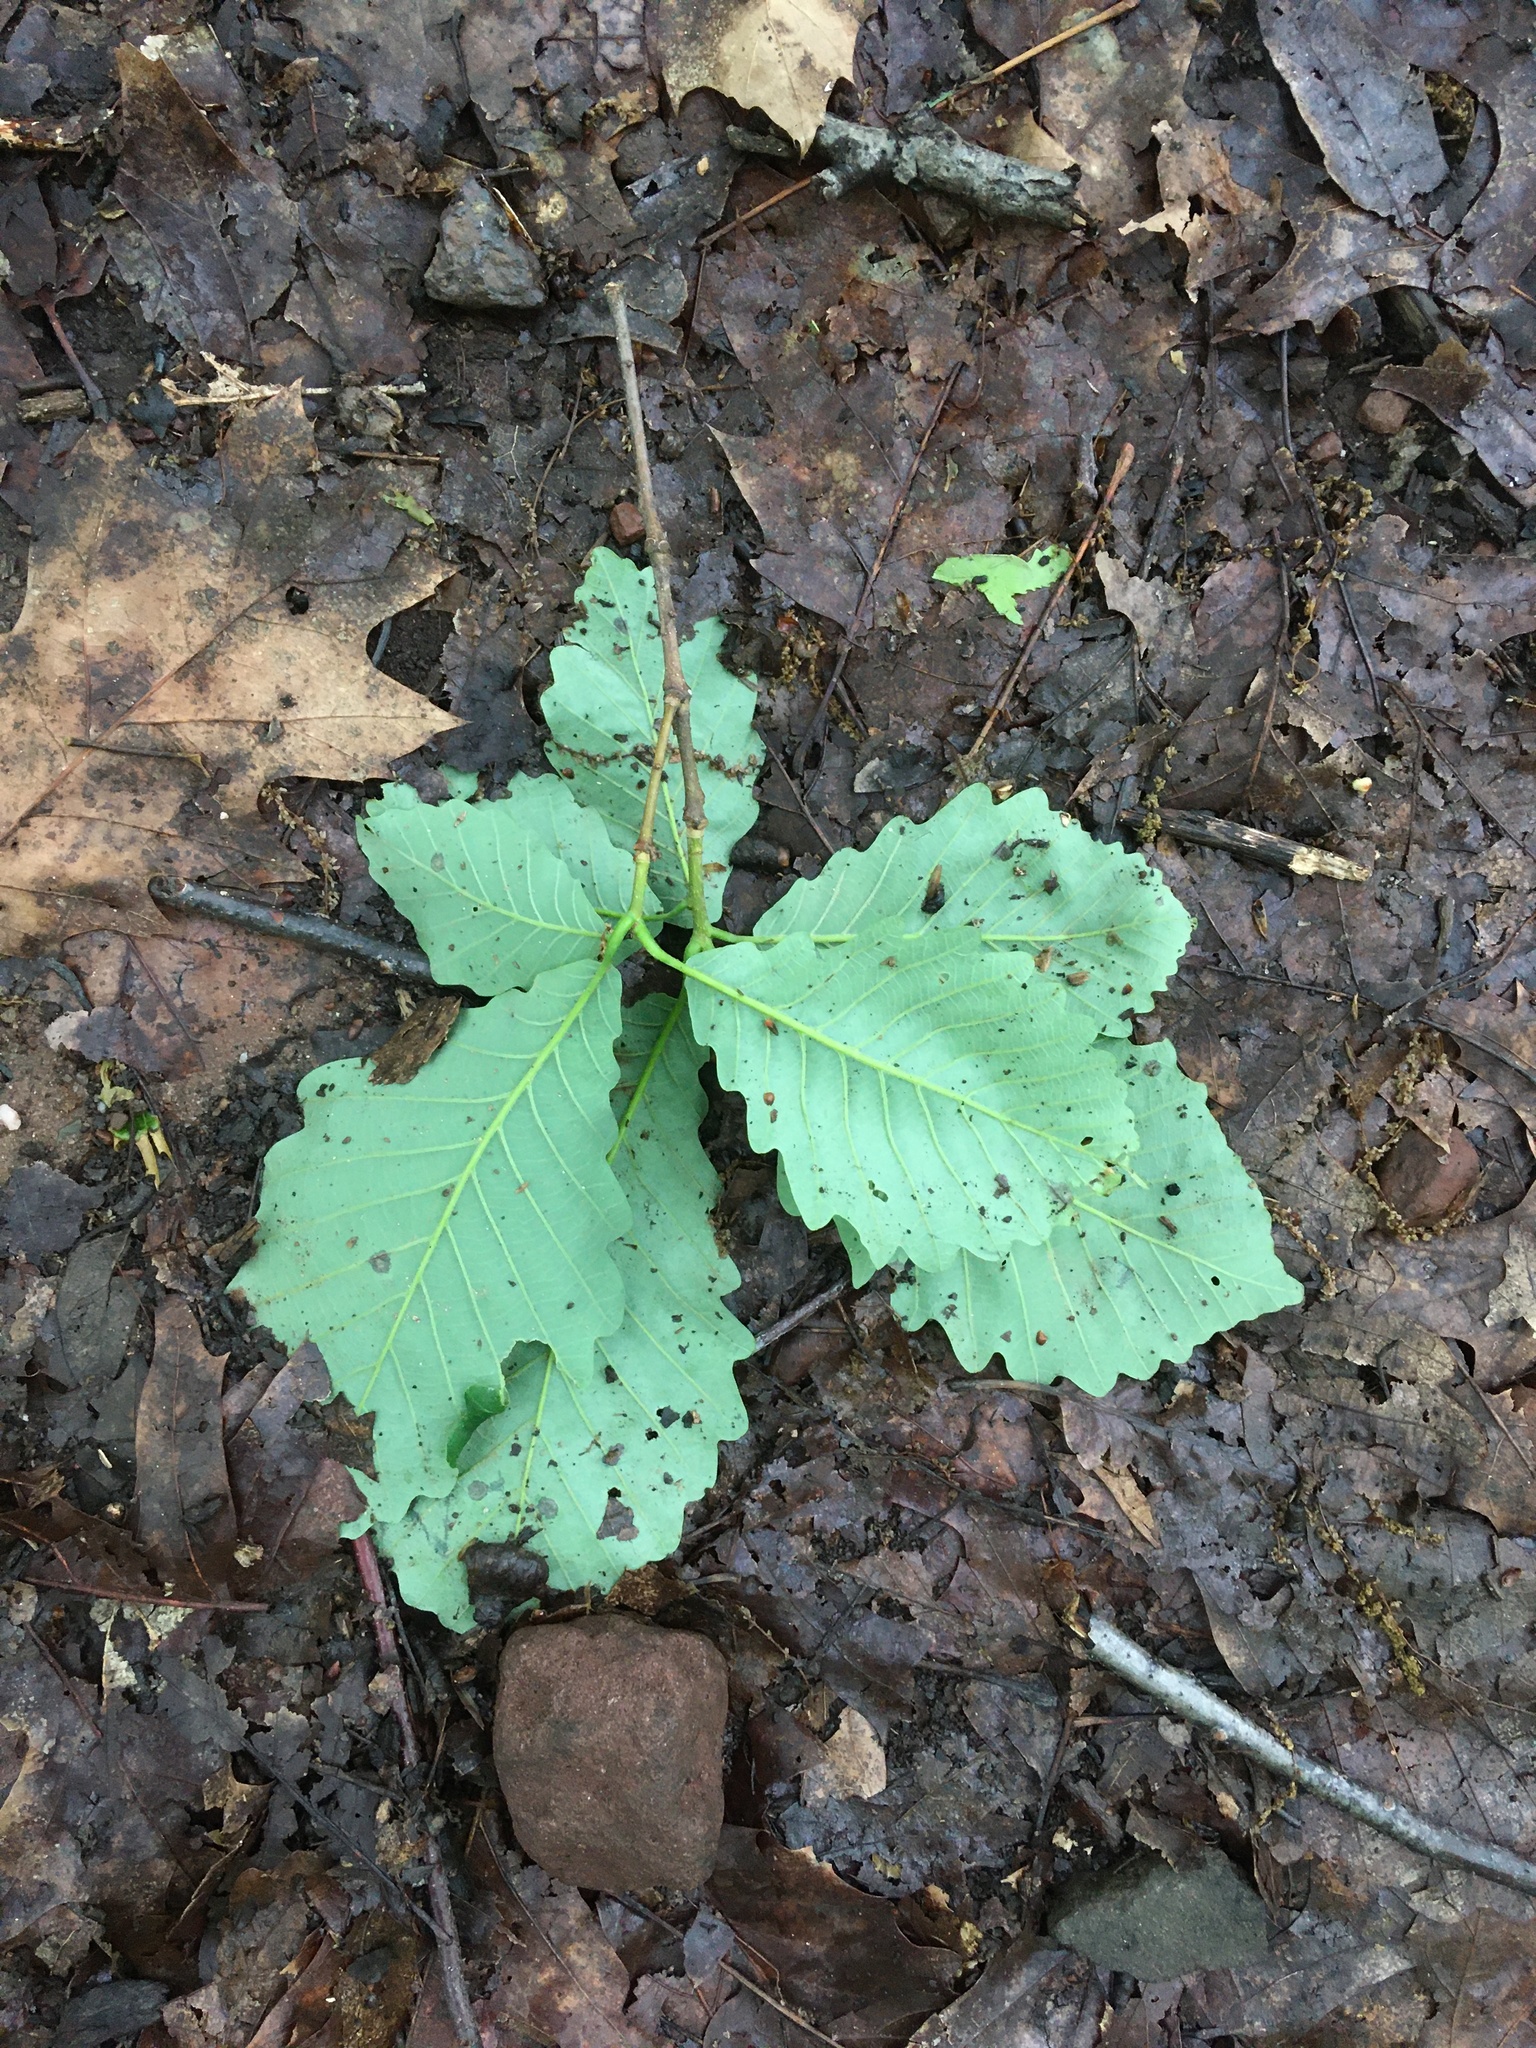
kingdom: Plantae
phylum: Tracheophyta
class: Magnoliopsida
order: Fagales
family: Fagaceae
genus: Quercus
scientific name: Quercus michauxii
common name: Swamp chestnut oak
